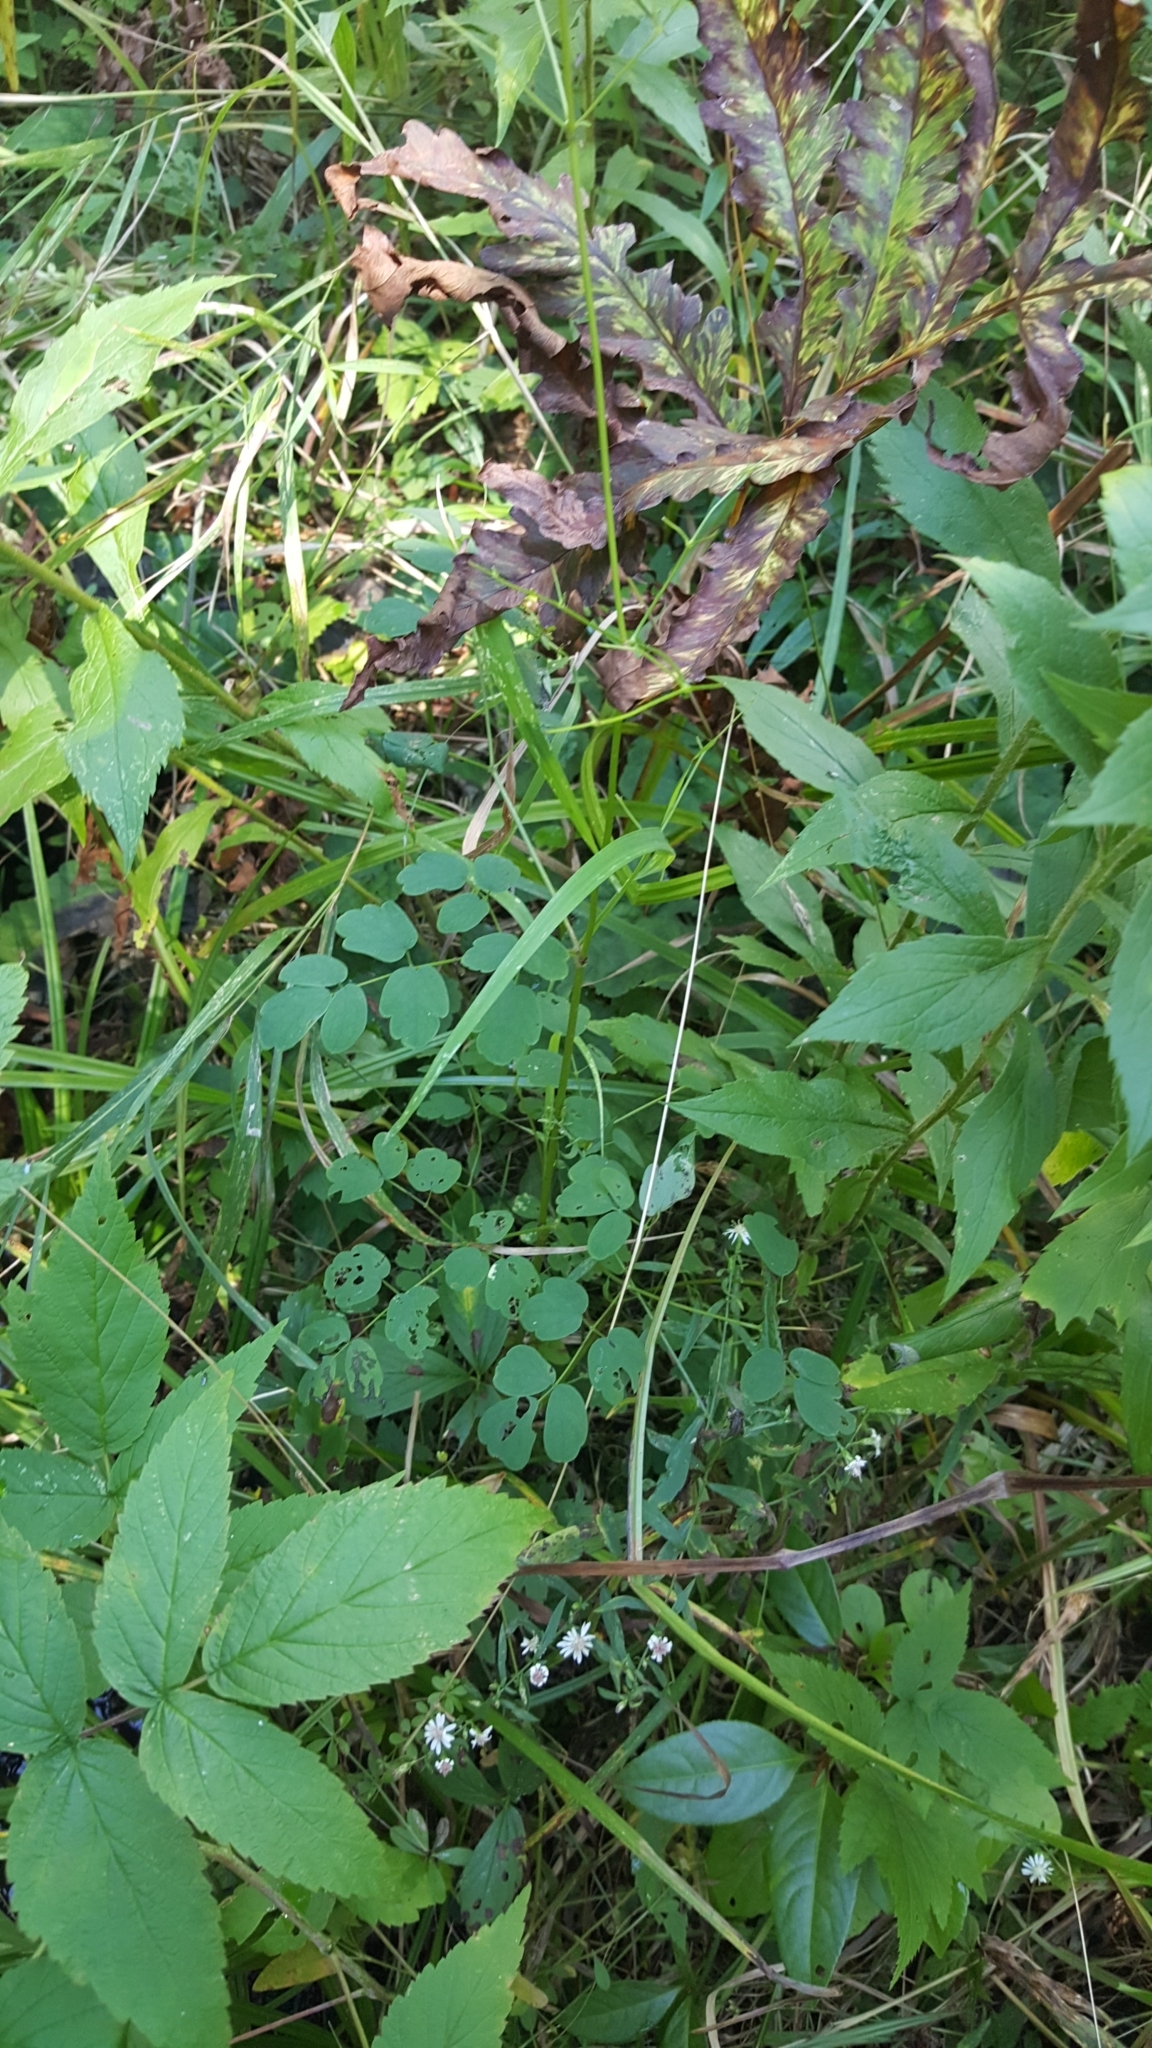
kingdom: Plantae
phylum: Tracheophyta
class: Magnoliopsida
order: Ranunculales
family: Ranunculaceae
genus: Thalictrum
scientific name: Thalictrum pubescens
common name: King-of-the-meadow
